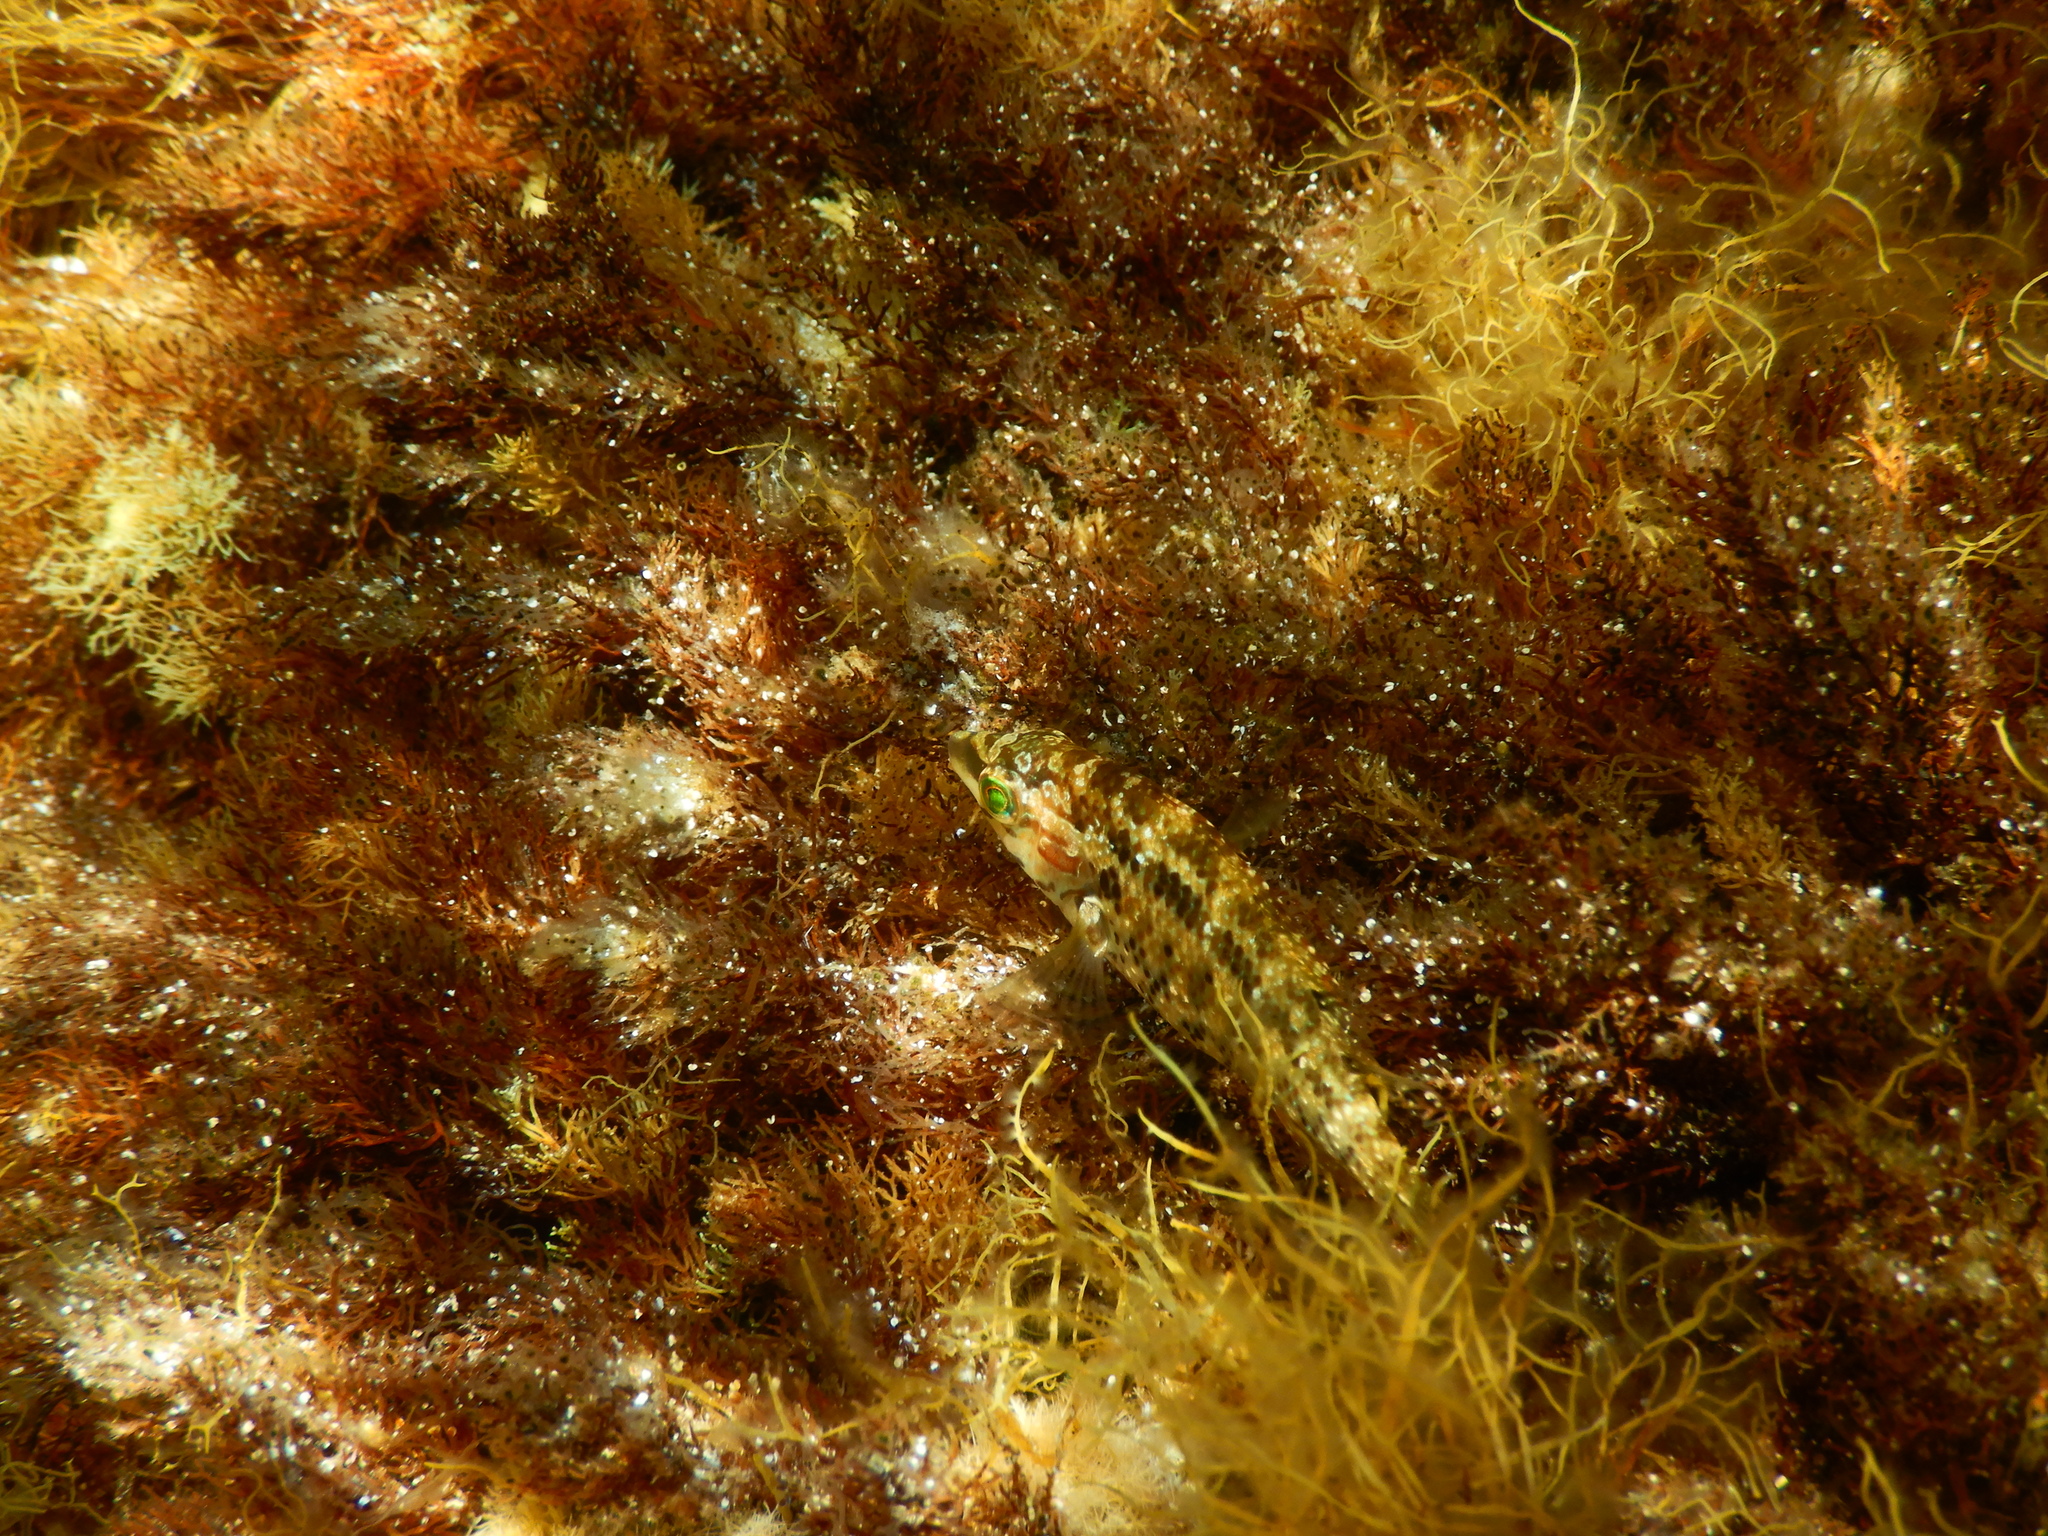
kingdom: Animalia
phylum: Chordata
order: Perciformes
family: Labridae
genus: Symphodus
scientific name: Symphodus roissali
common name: Five-spotted wrasse
